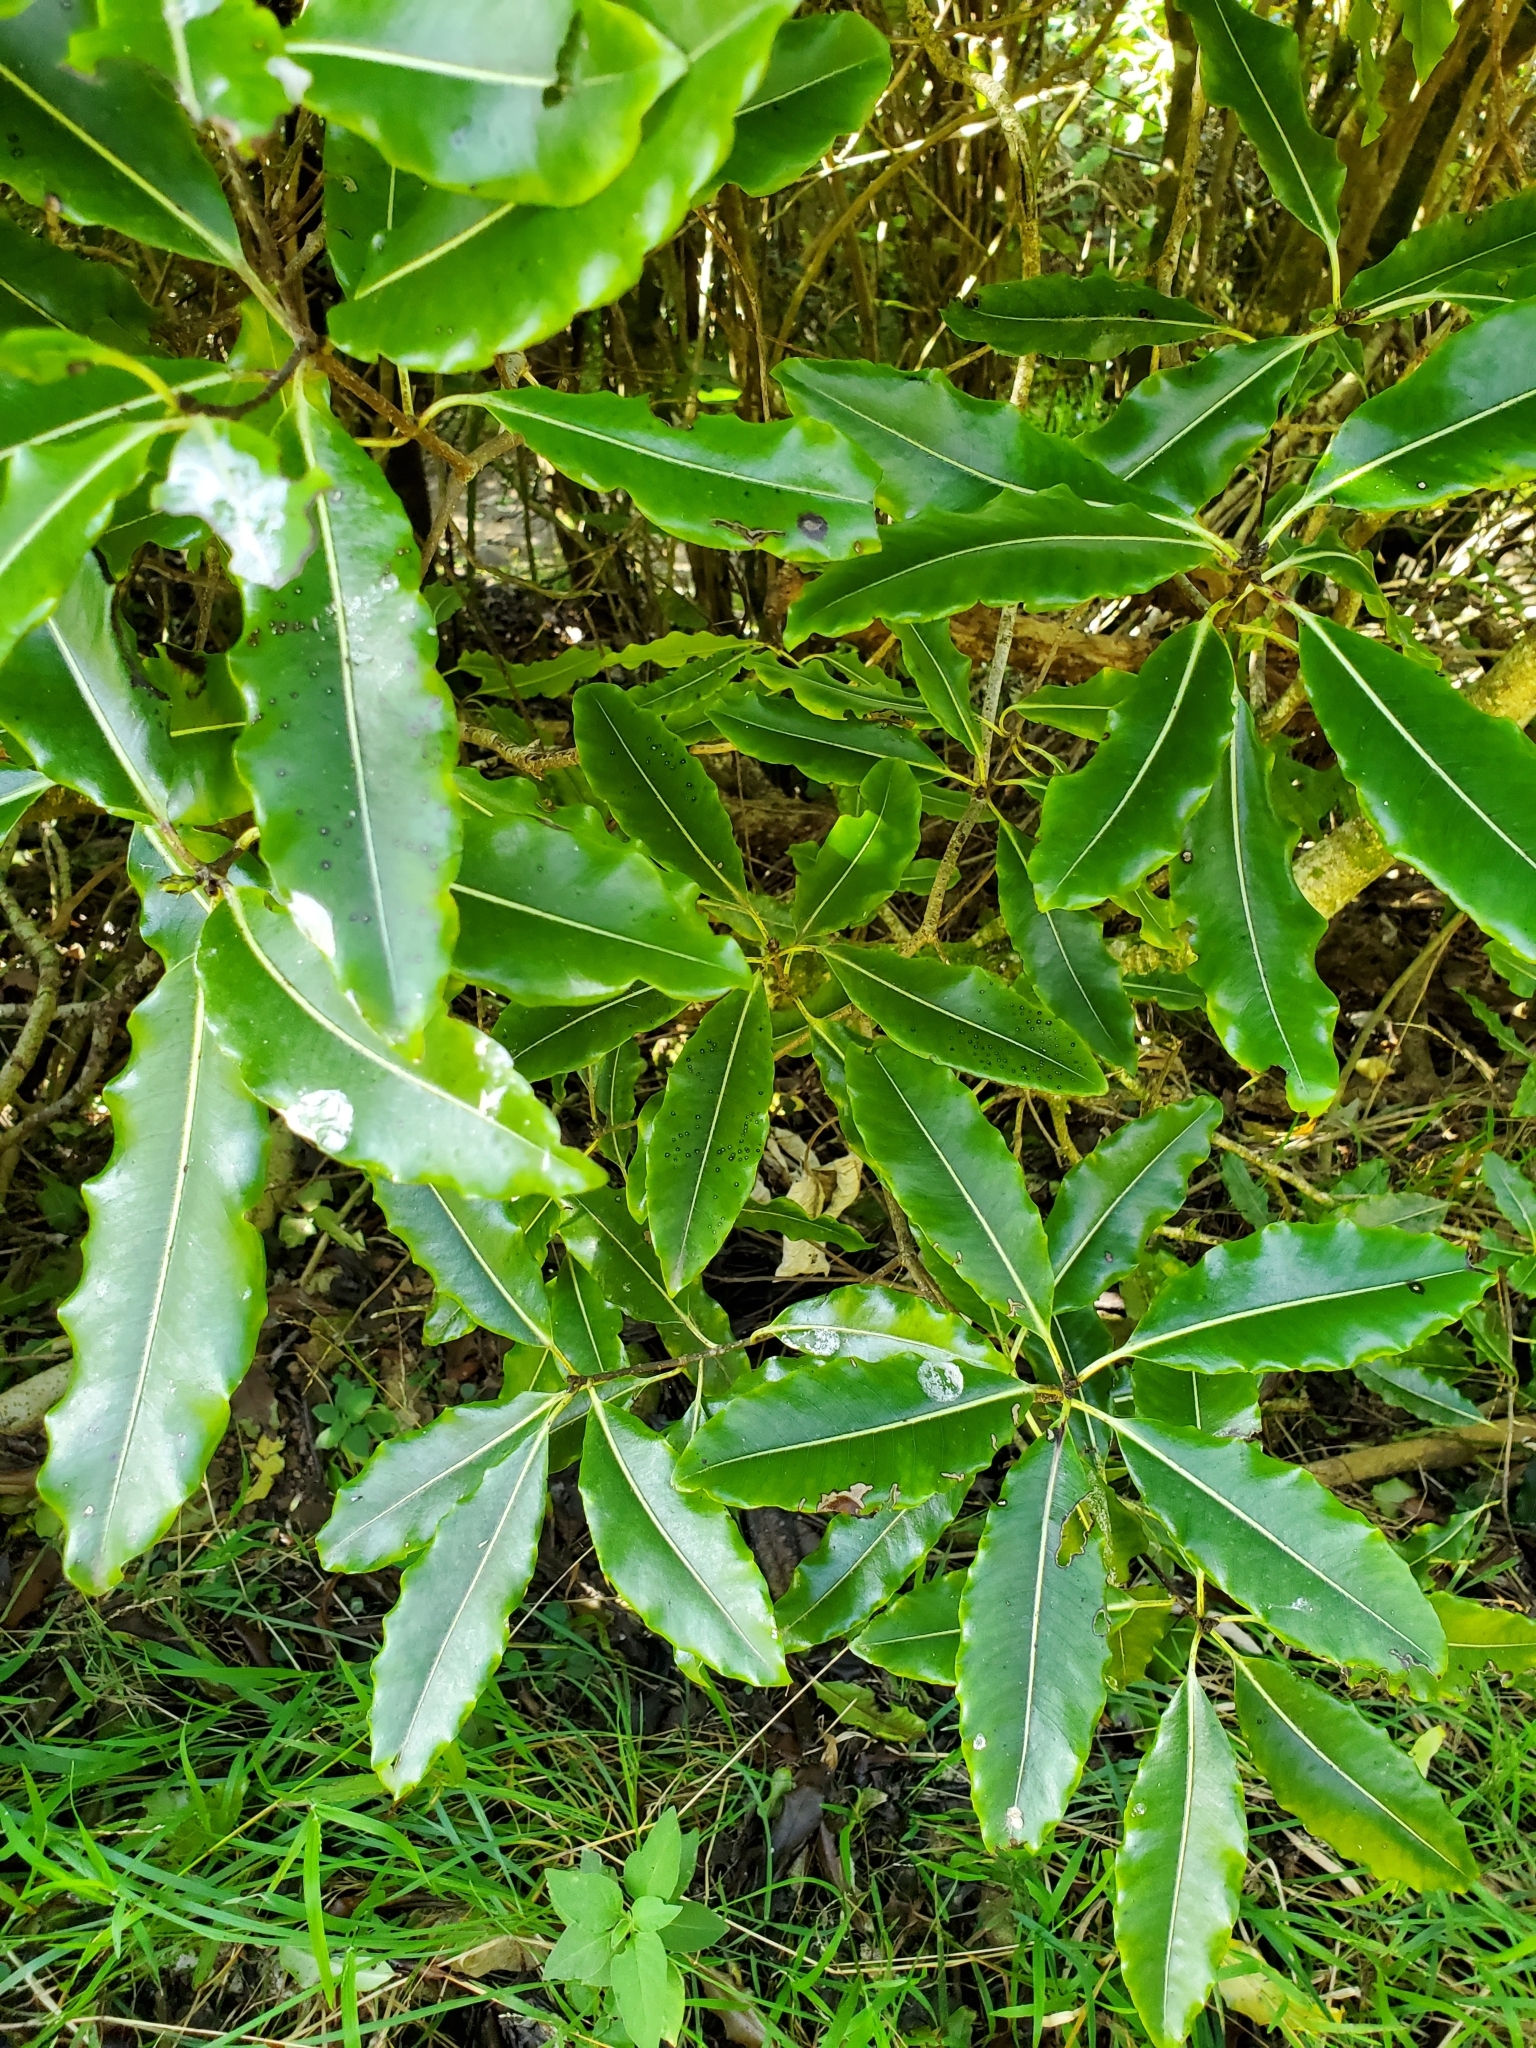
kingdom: Plantae
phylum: Tracheophyta
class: Magnoliopsida
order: Apiales
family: Pittosporaceae
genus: Pittosporum
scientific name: Pittosporum eugenioides
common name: Lemonwood
